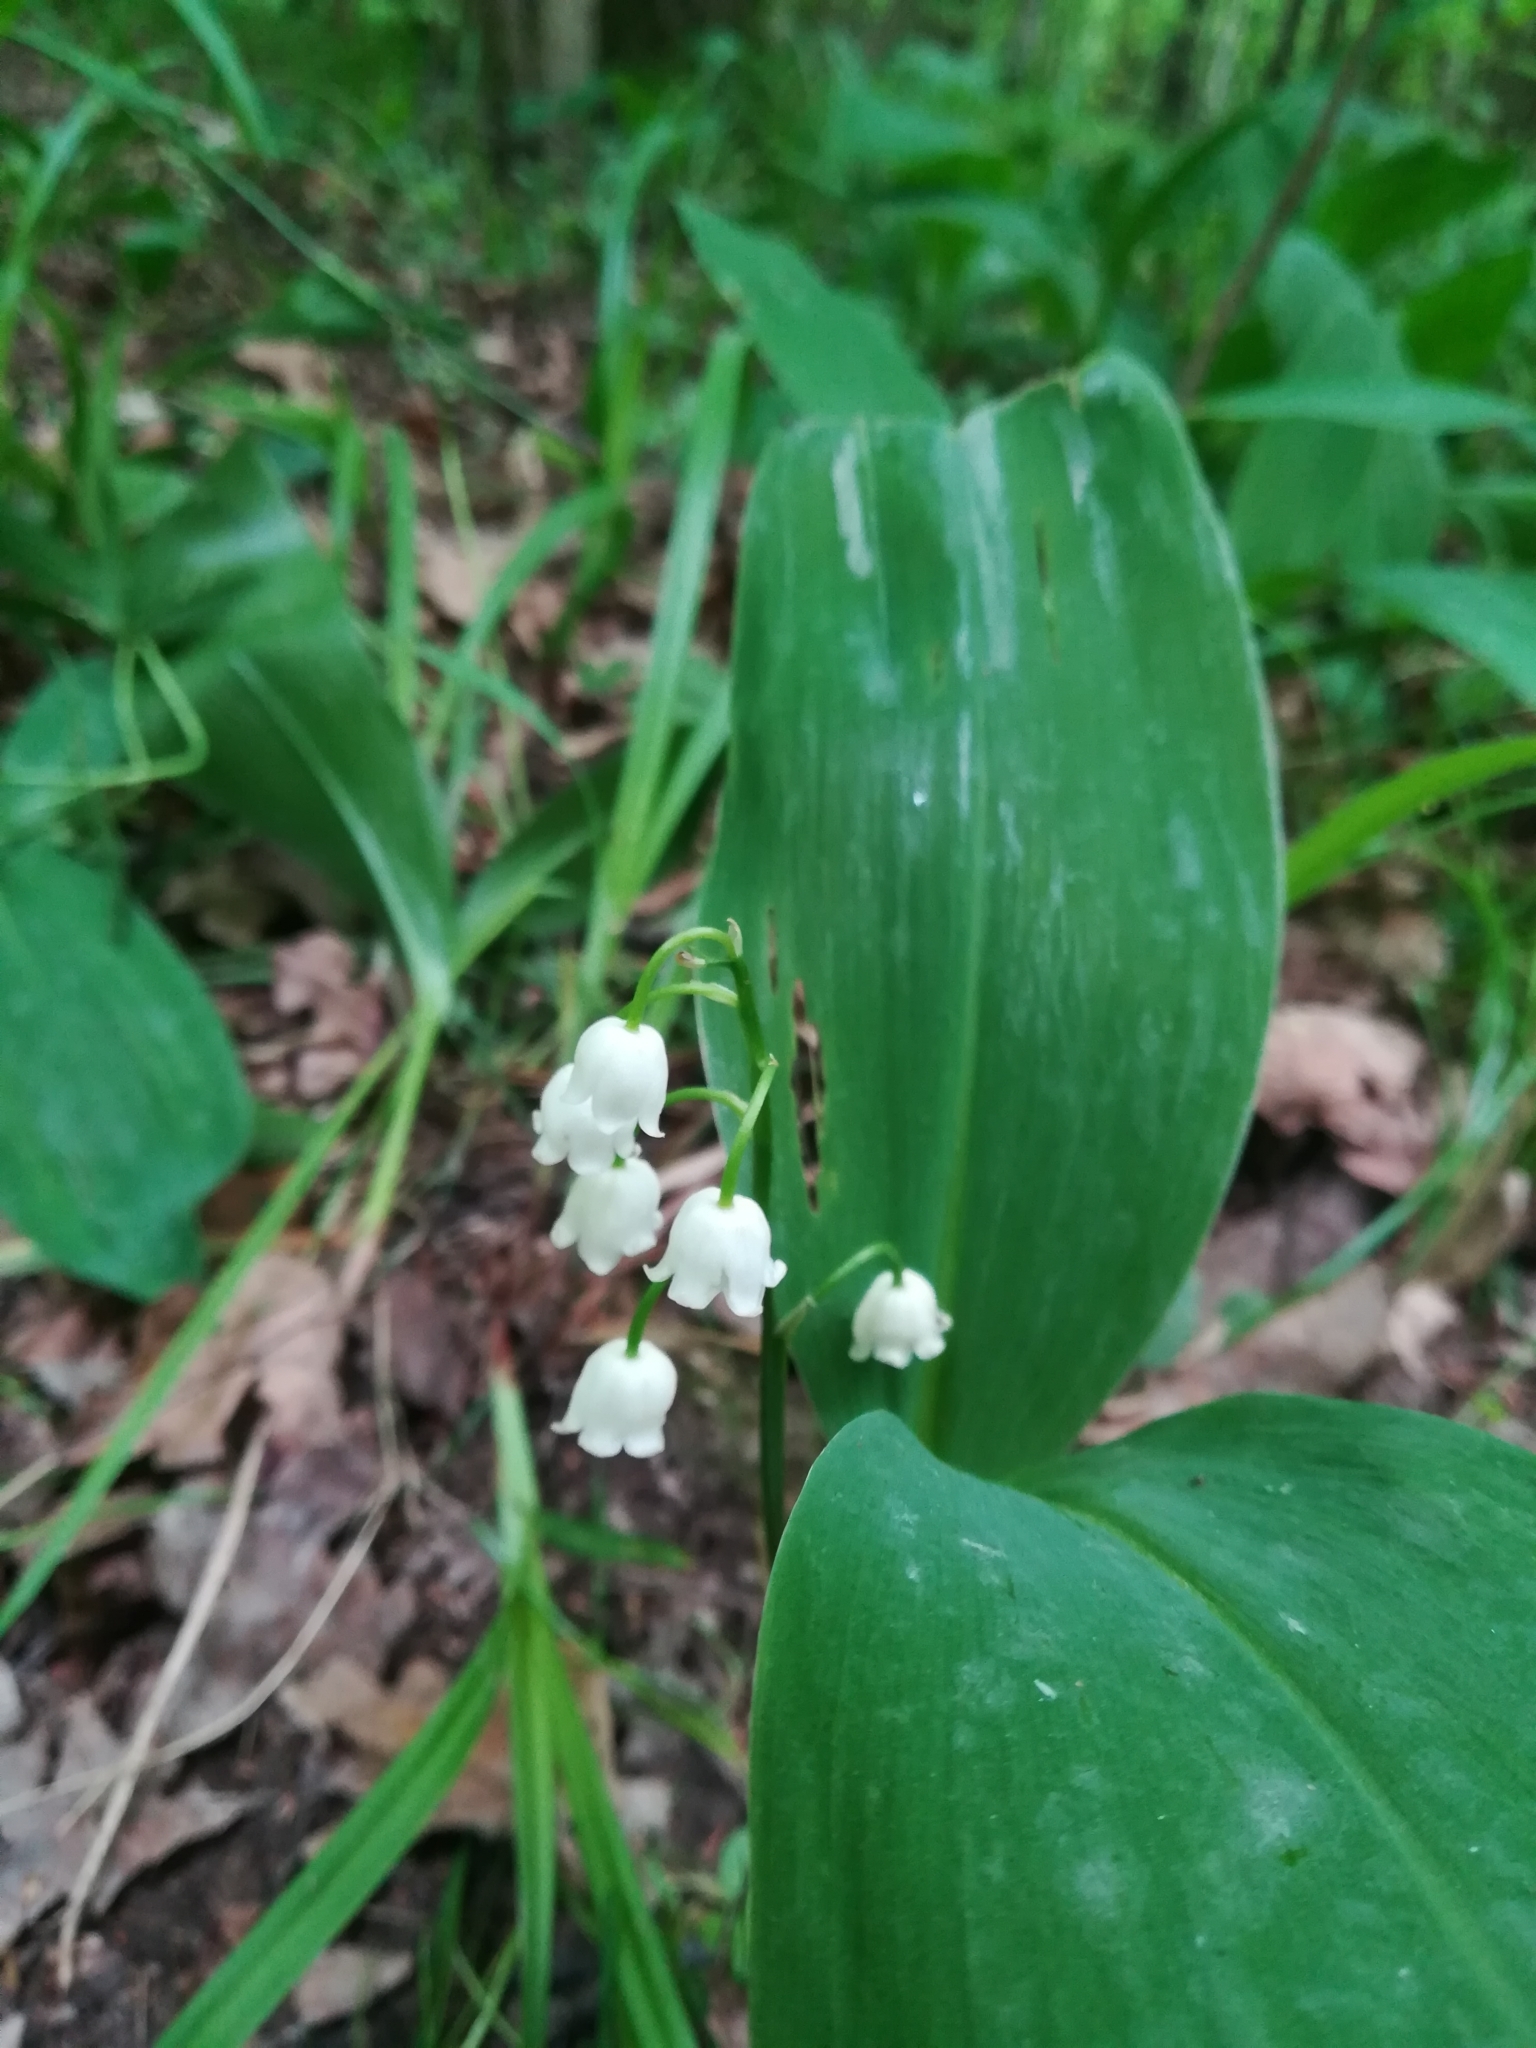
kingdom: Plantae
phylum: Tracheophyta
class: Liliopsida
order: Asparagales
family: Asparagaceae
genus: Convallaria
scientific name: Convallaria majalis
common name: Lily-of-the-valley
